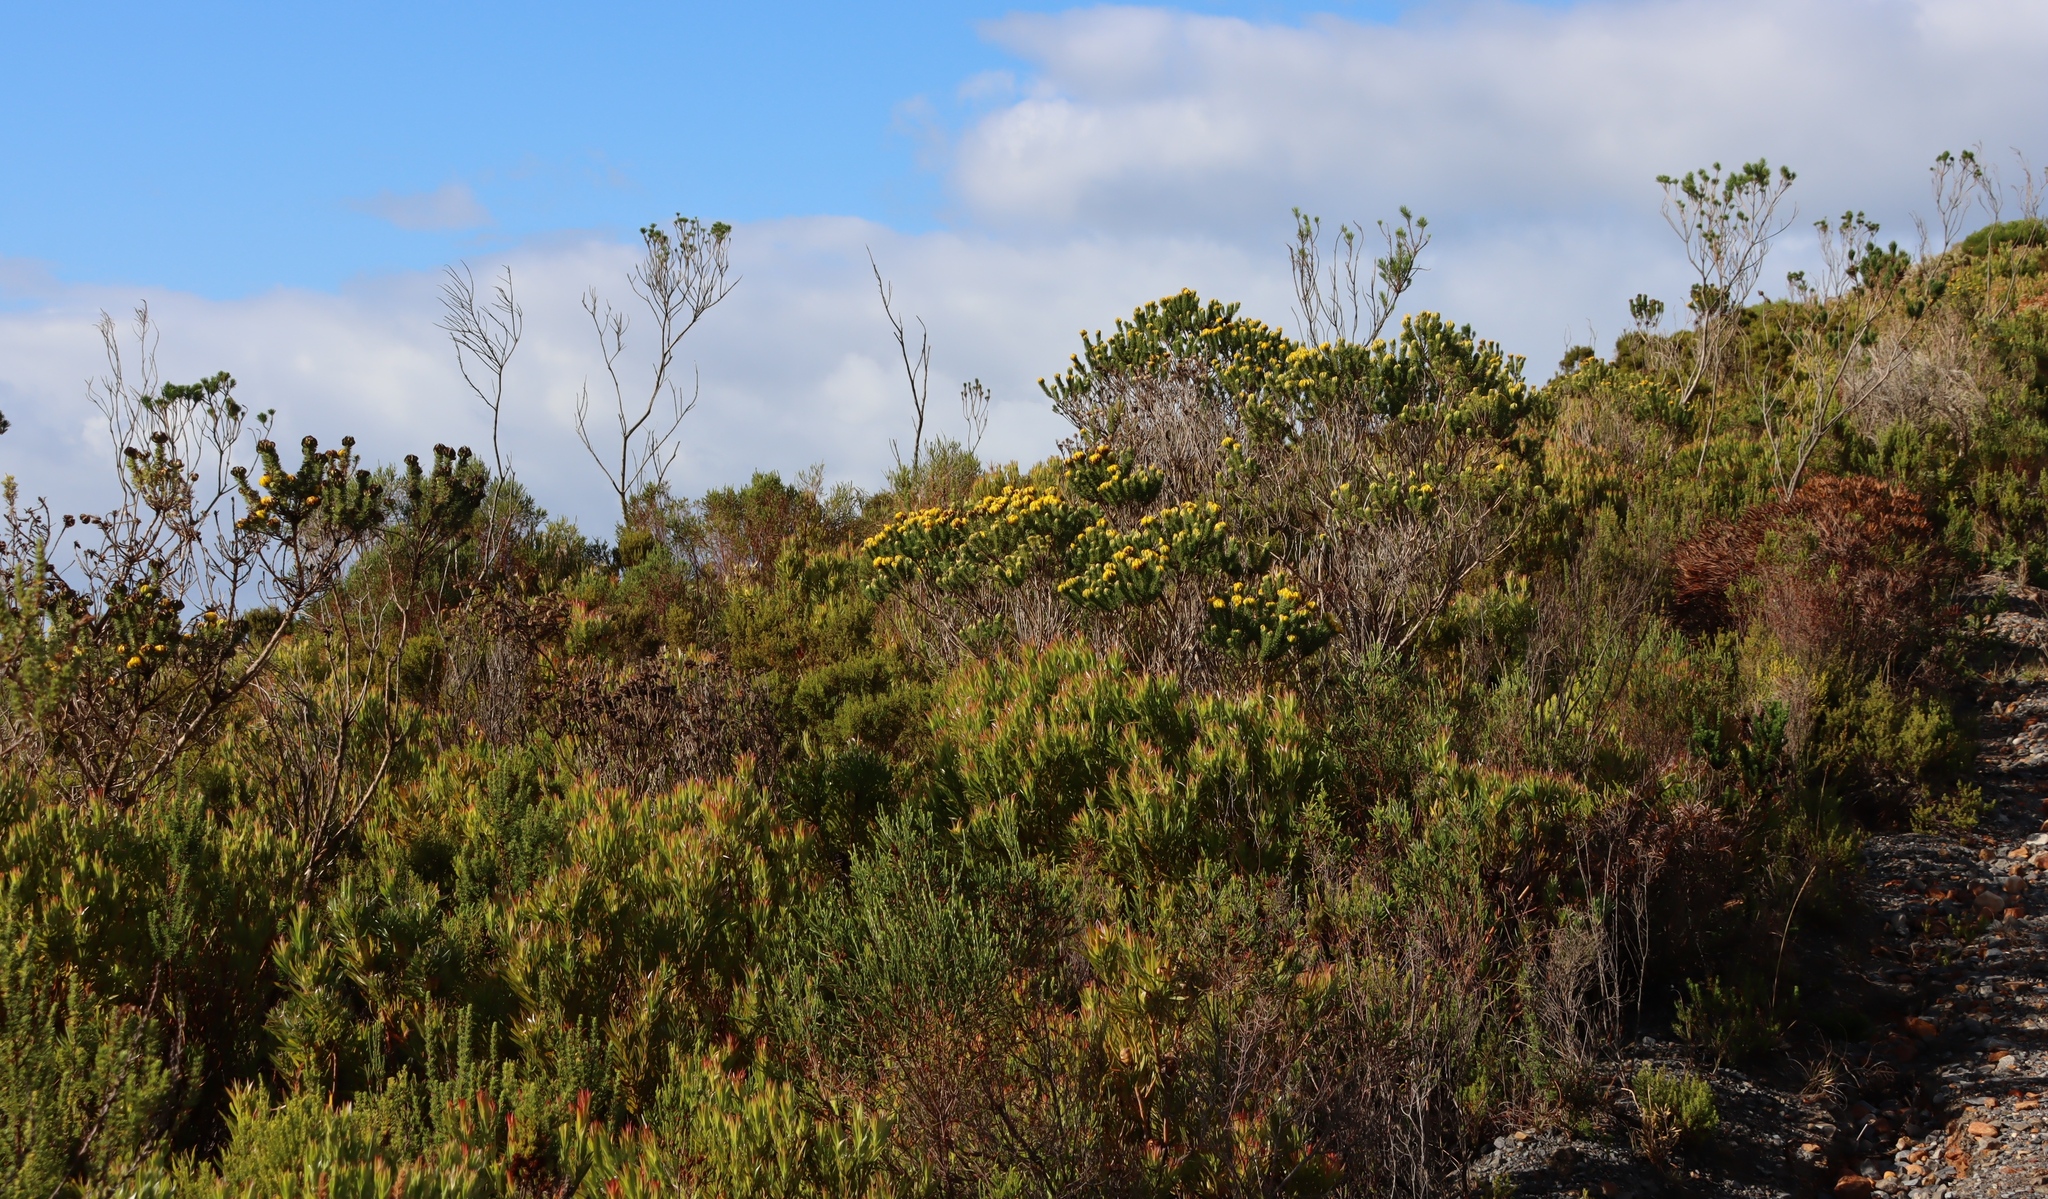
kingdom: Plantae
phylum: Tracheophyta
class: Magnoliopsida
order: Fabales
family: Fabaceae
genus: Aspalathus
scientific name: Aspalathus capitata
